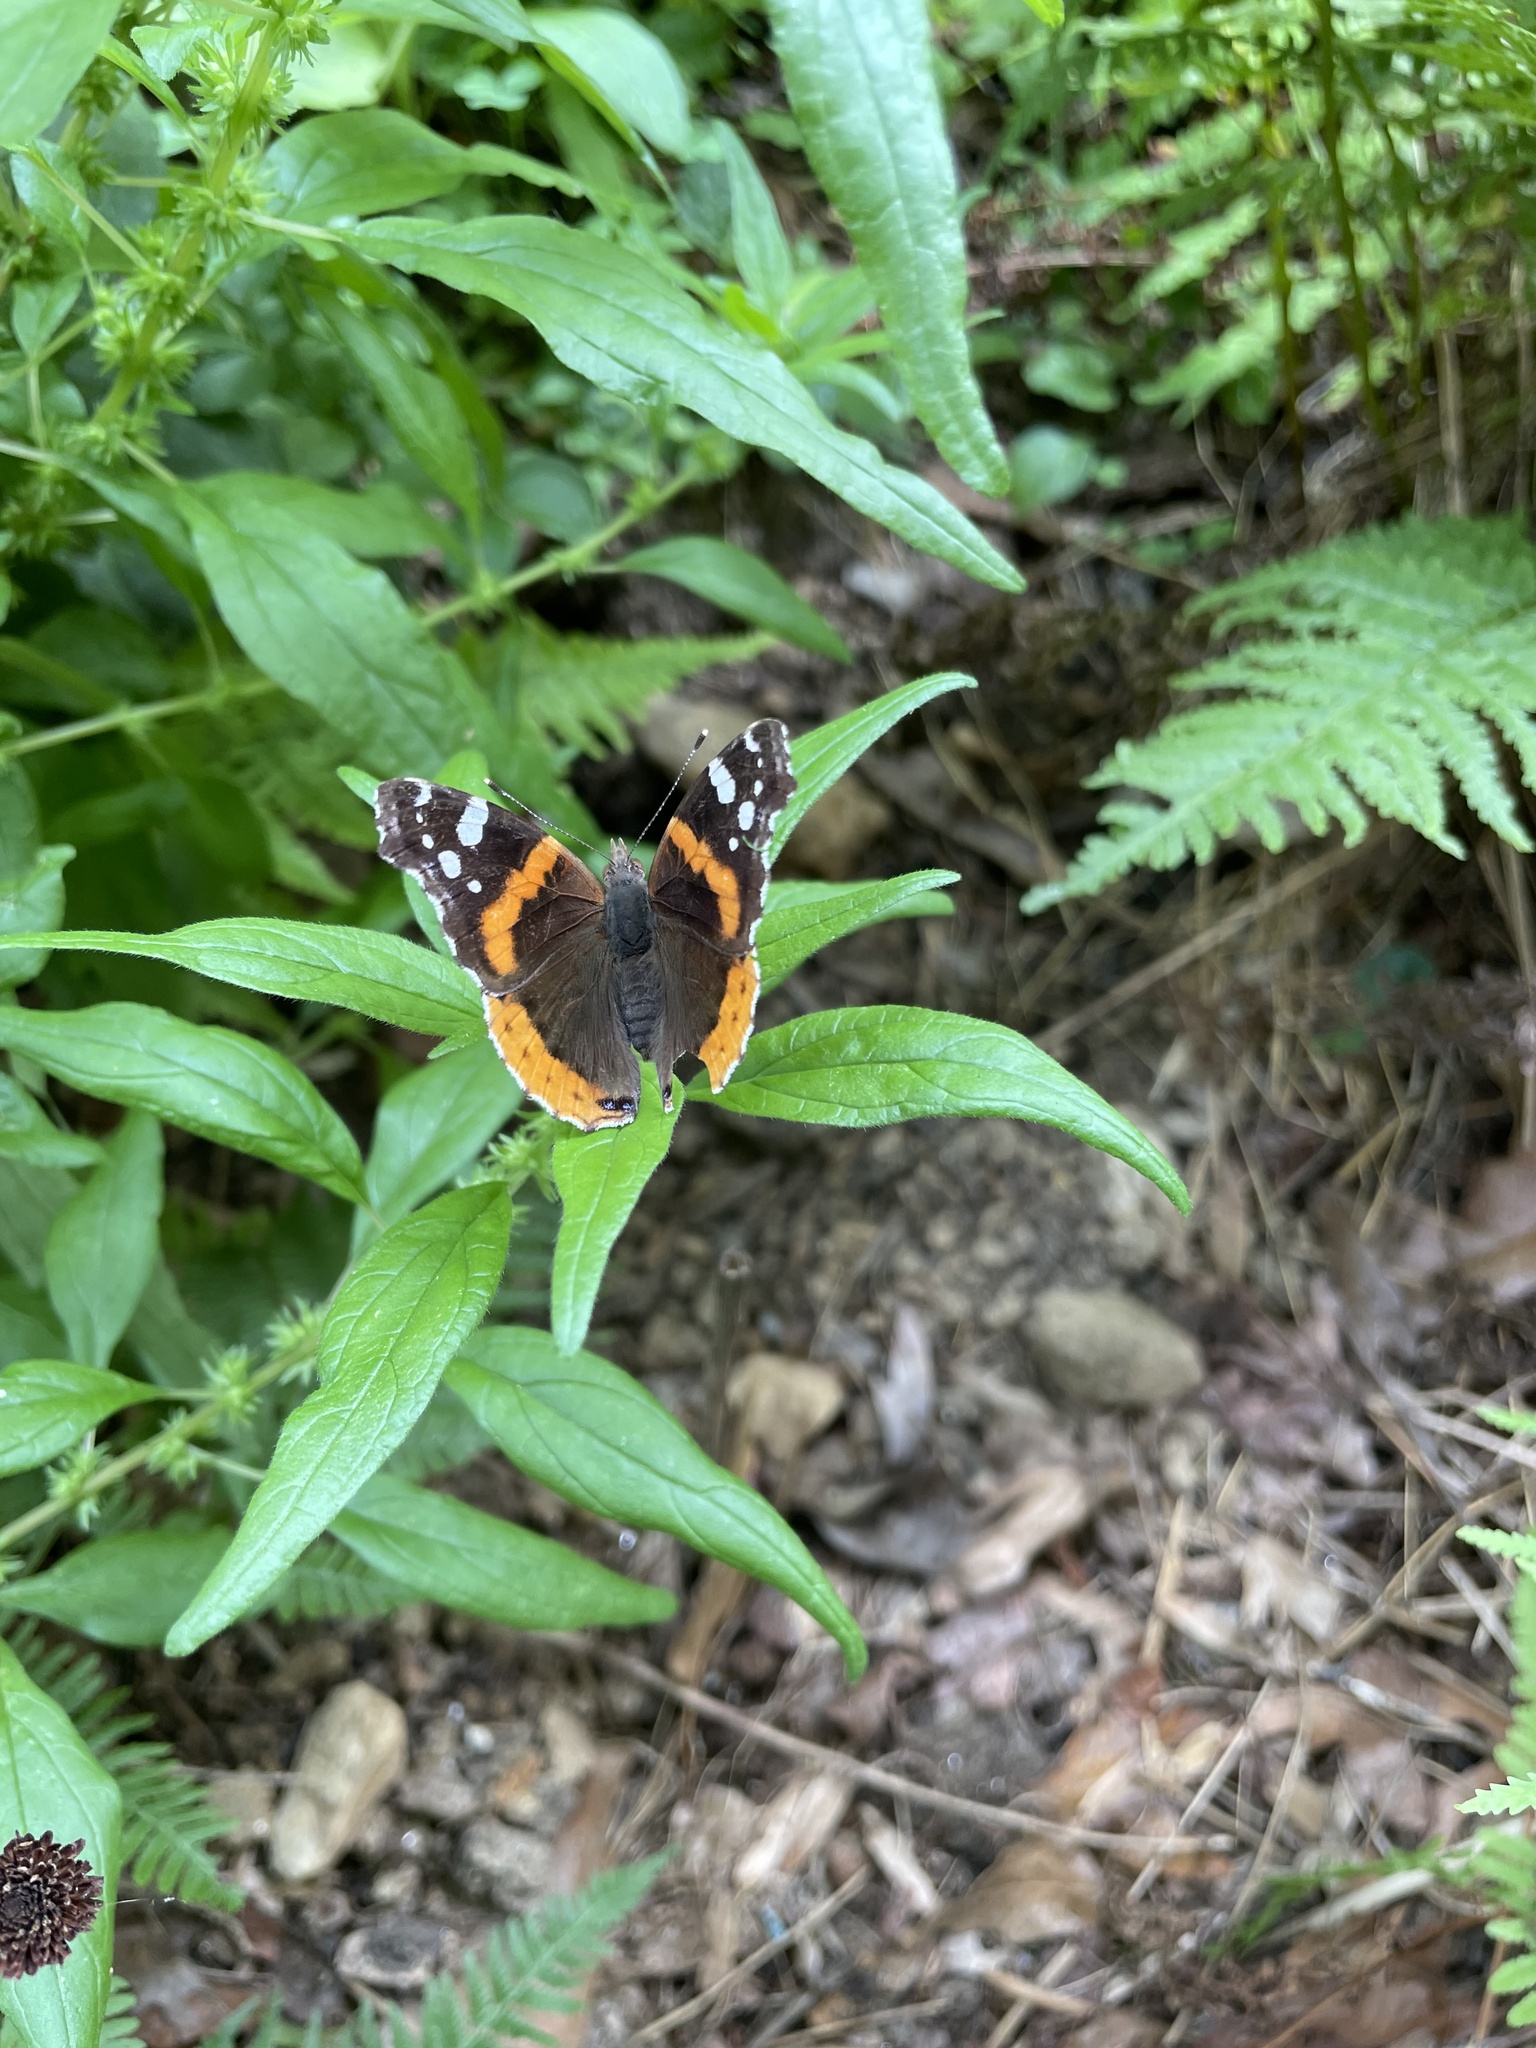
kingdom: Animalia
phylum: Arthropoda
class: Insecta
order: Lepidoptera
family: Nymphalidae
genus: Vanessa
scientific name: Vanessa atalanta
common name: Red admiral
